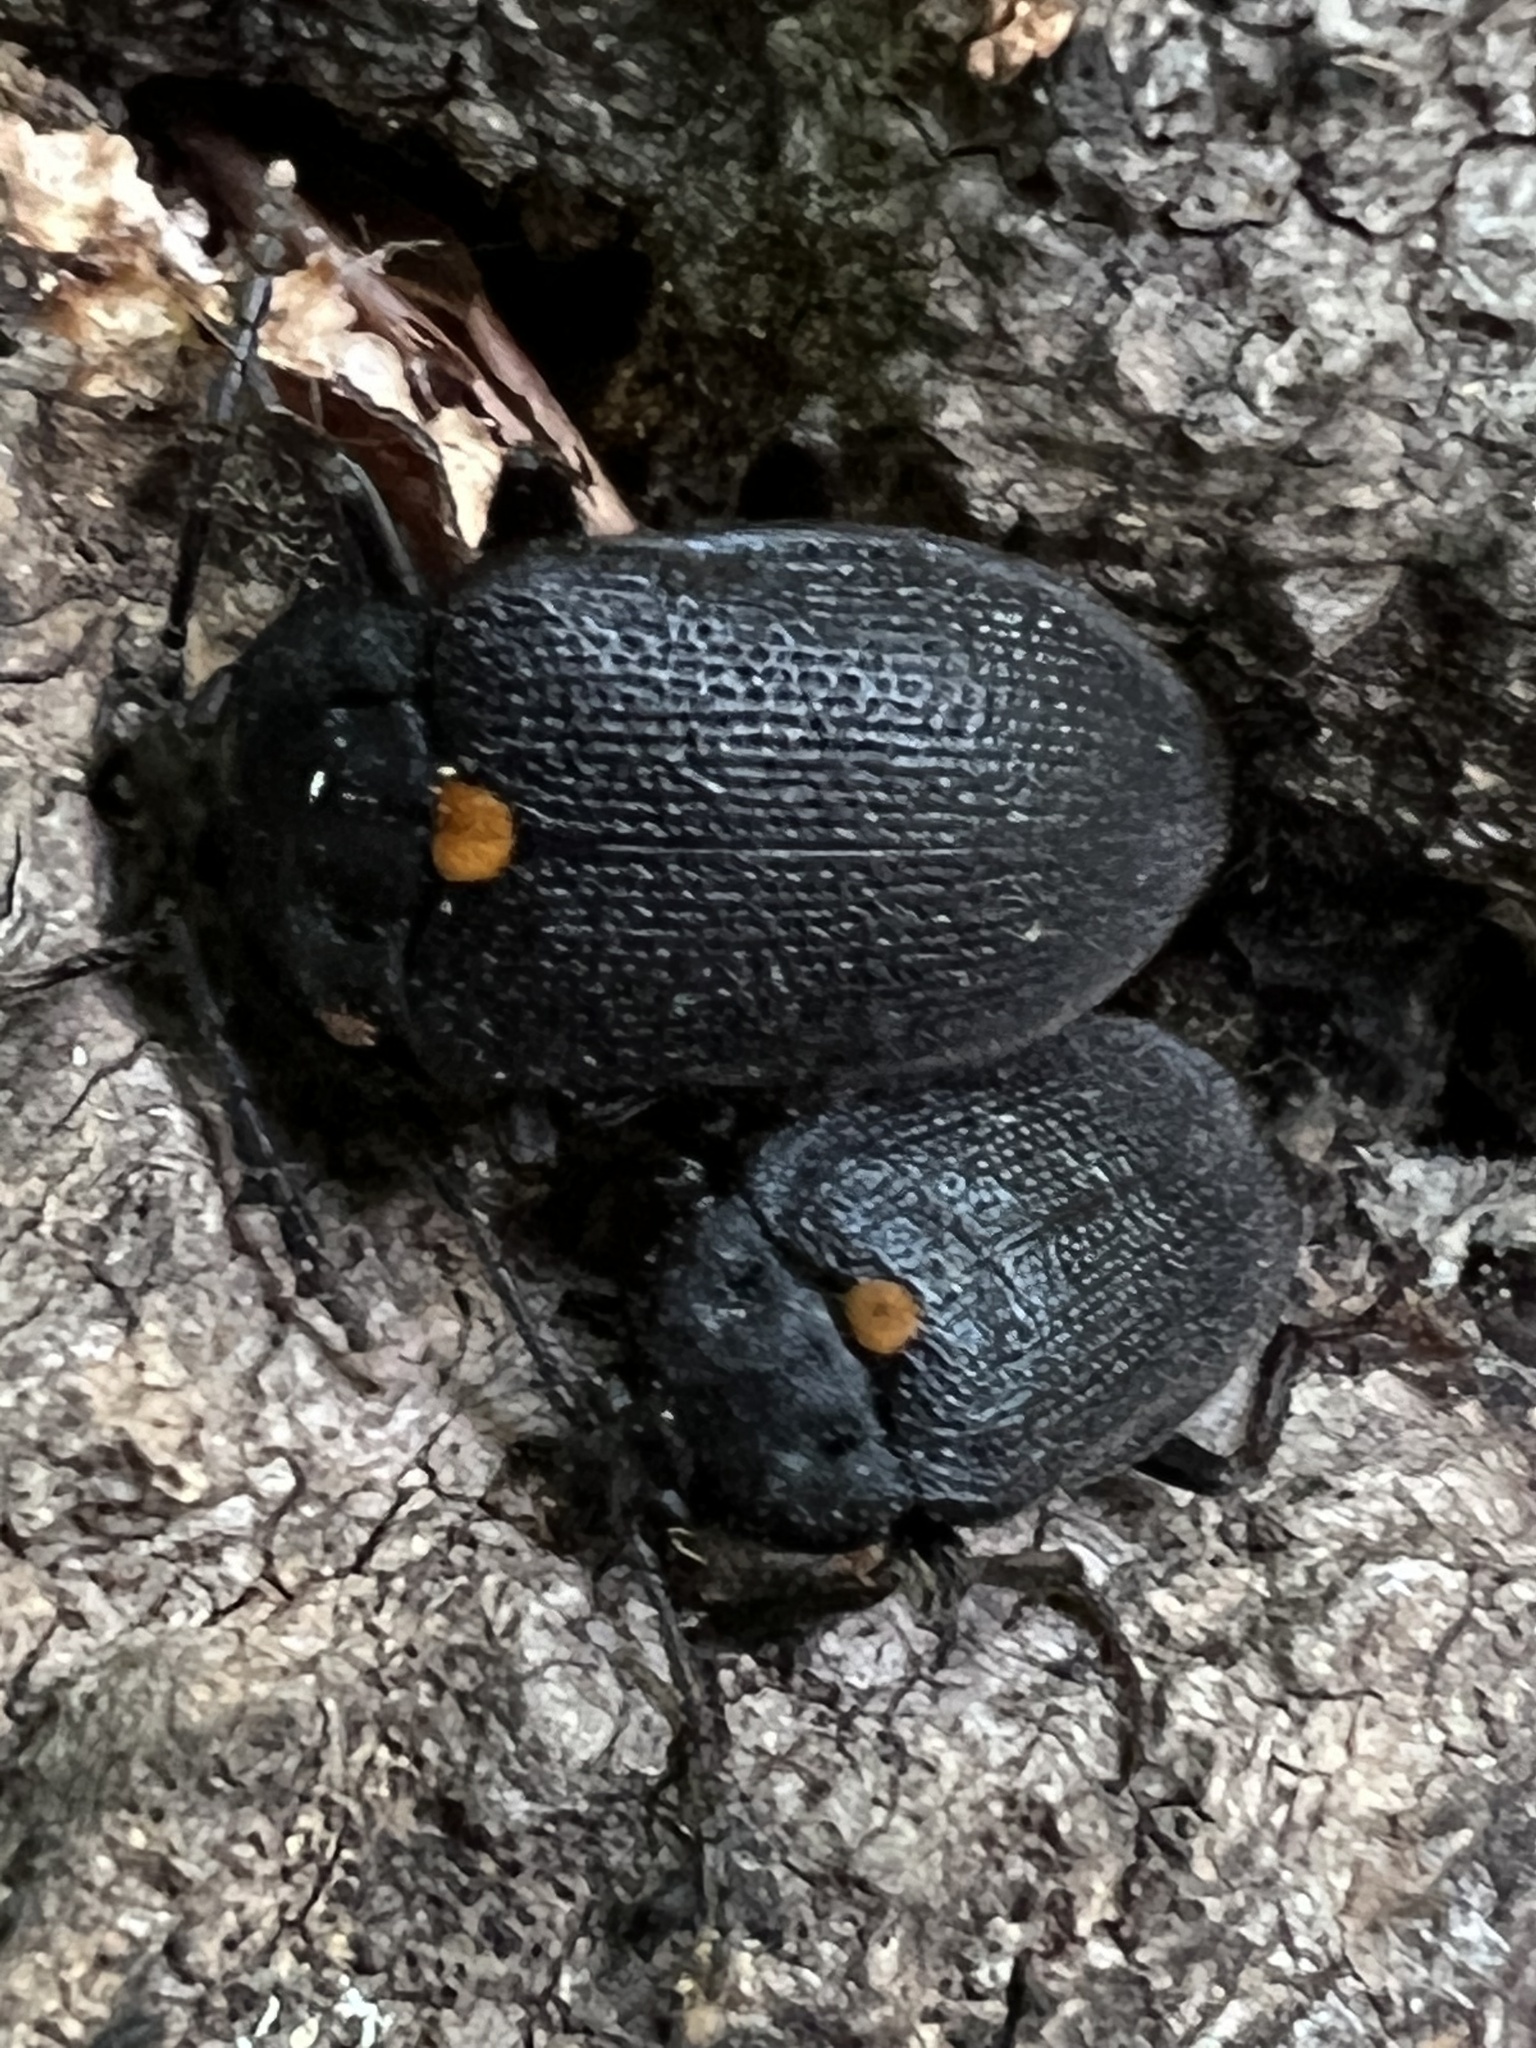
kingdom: Animalia
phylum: Arthropoda
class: Insecta
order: Coleoptera
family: Tetratomidae
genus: Penthe
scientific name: Penthe obliquata
